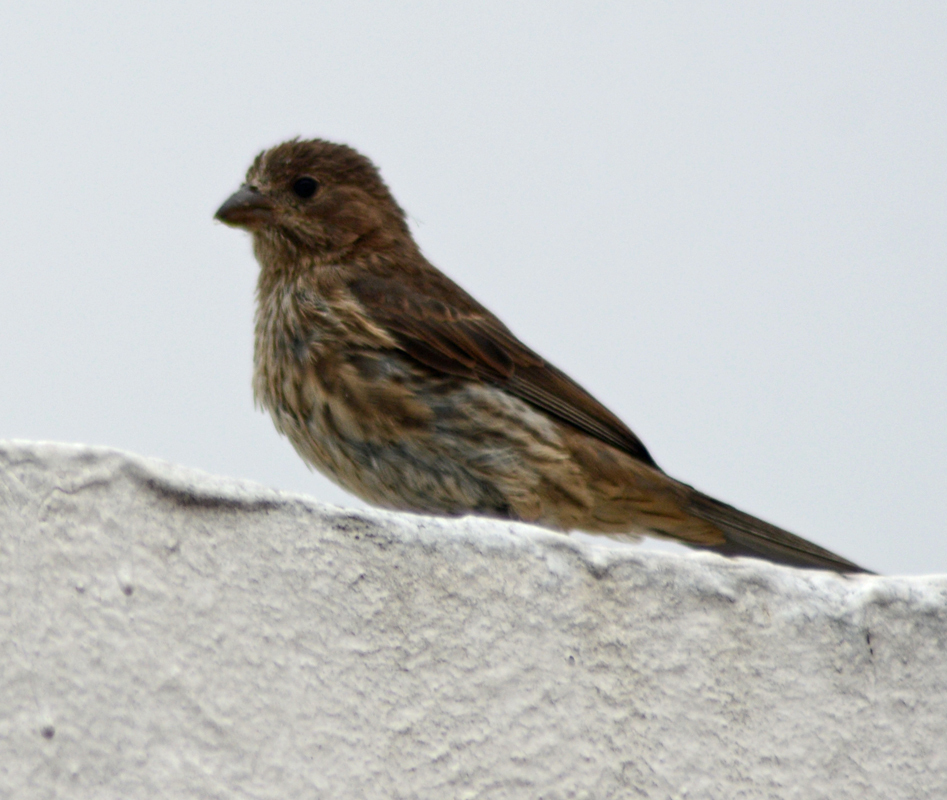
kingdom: Animalia
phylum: Chordata
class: Aves
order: Passeriformes
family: Fringillidae
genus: Haemorhous
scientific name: Haemorhous mexicanus
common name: House finch
